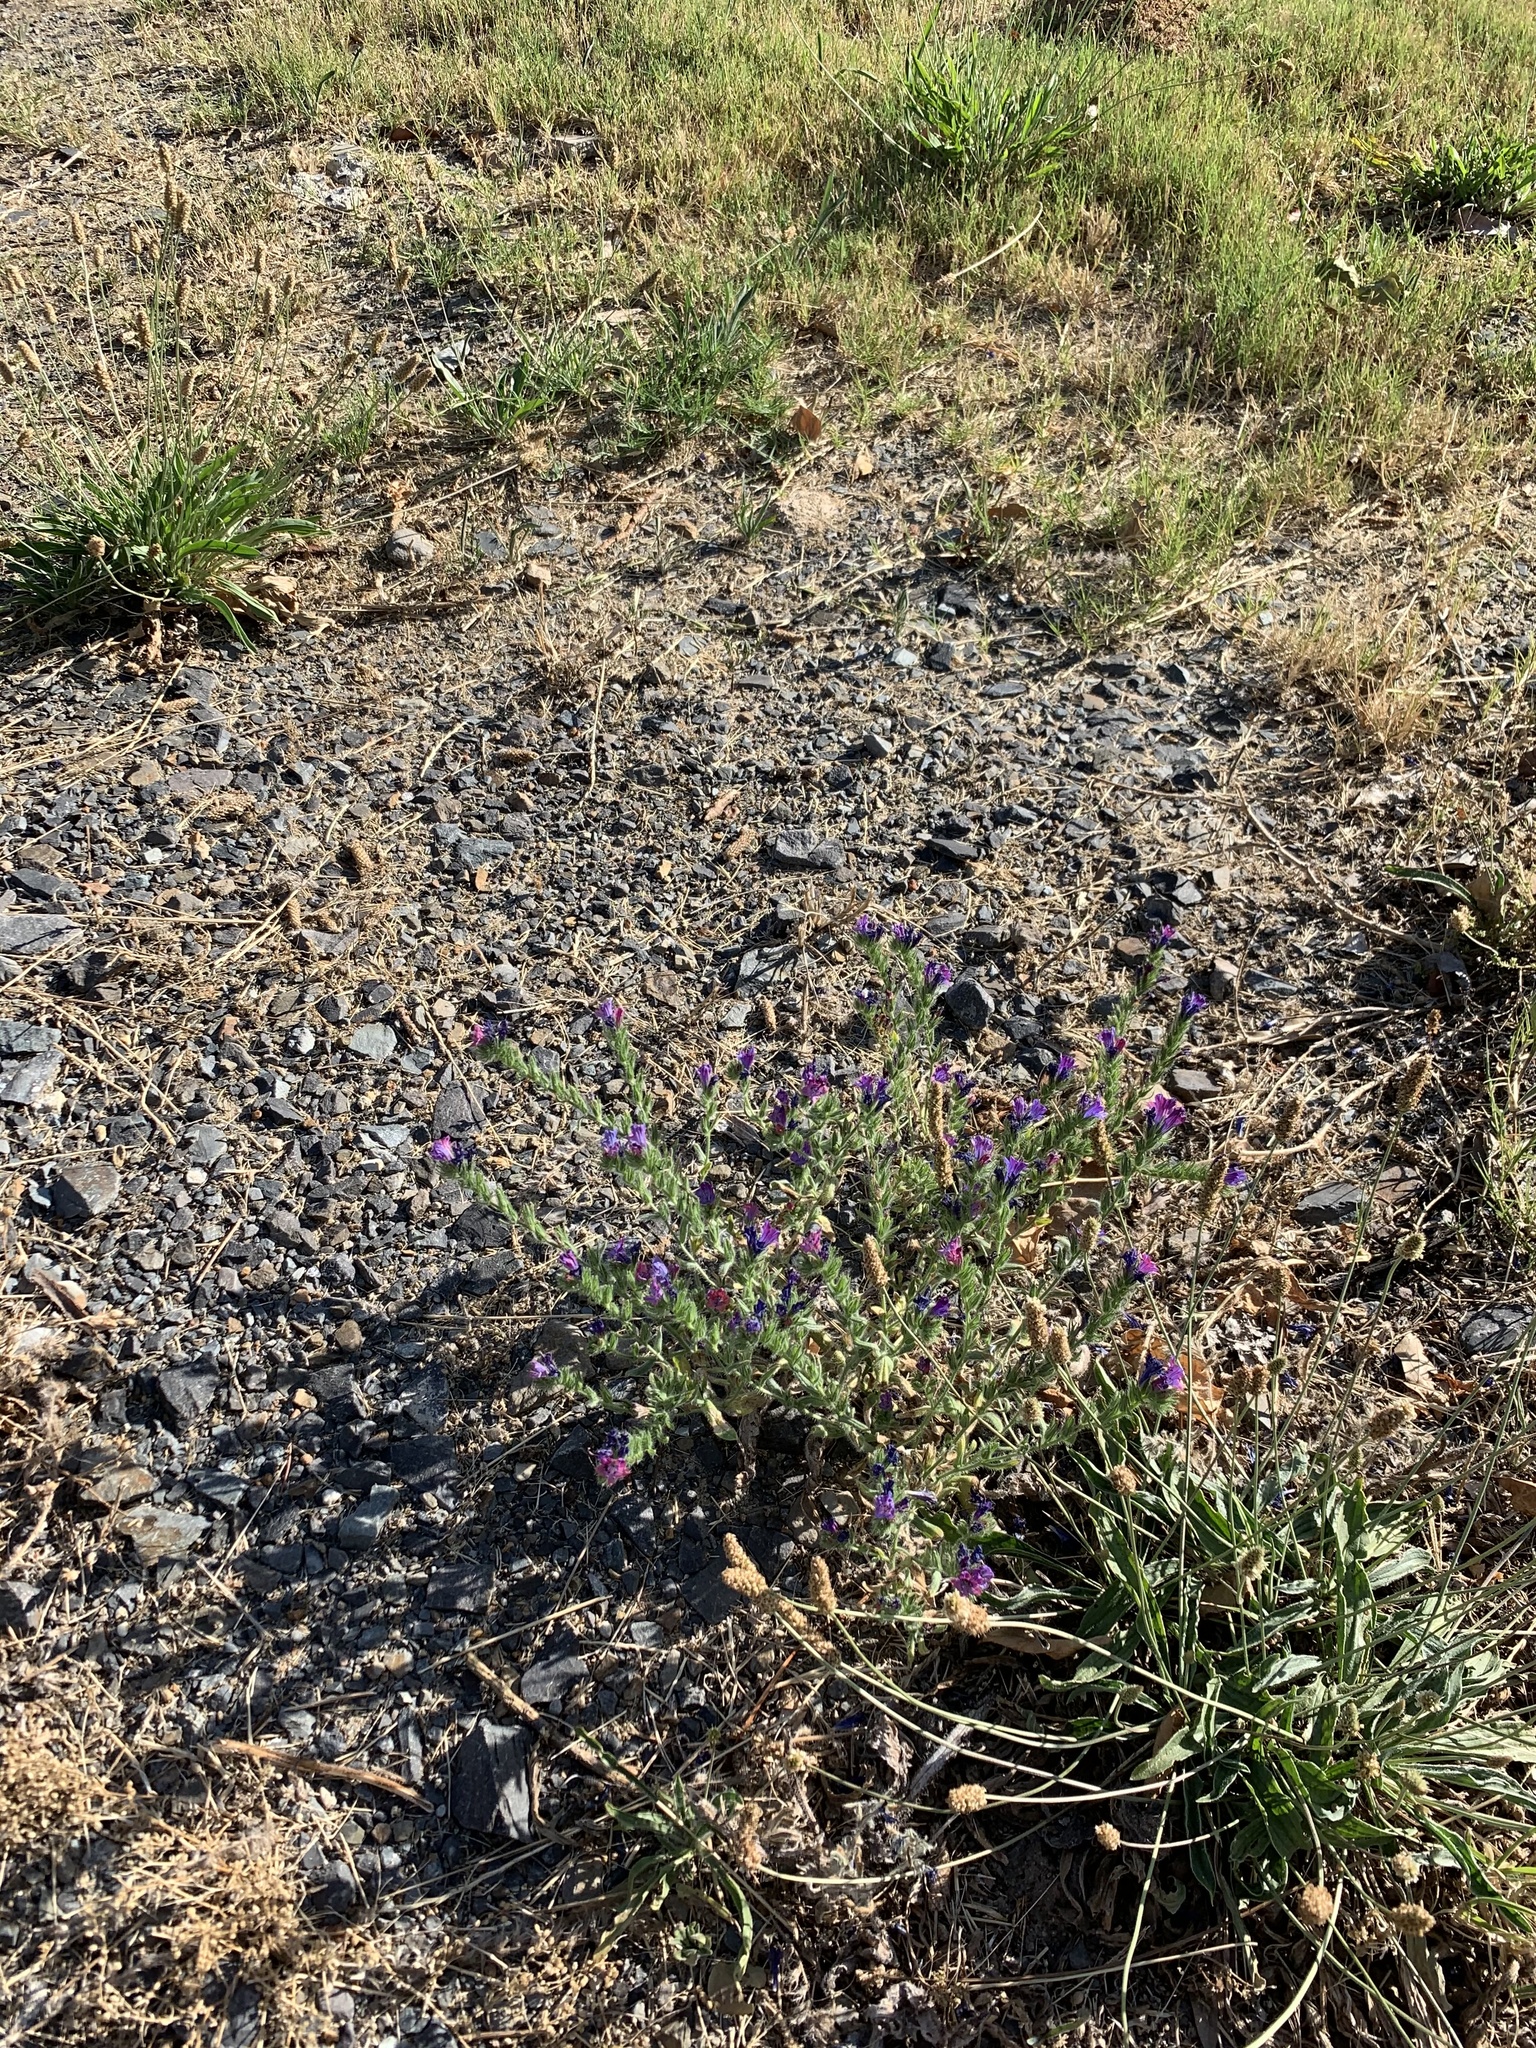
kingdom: Plantae
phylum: Tracheophyta
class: Magnoliopsida
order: Boraginales
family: Boraginaceae
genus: Echium
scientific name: Echium plantagineum
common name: Purple viper's-bugloss
